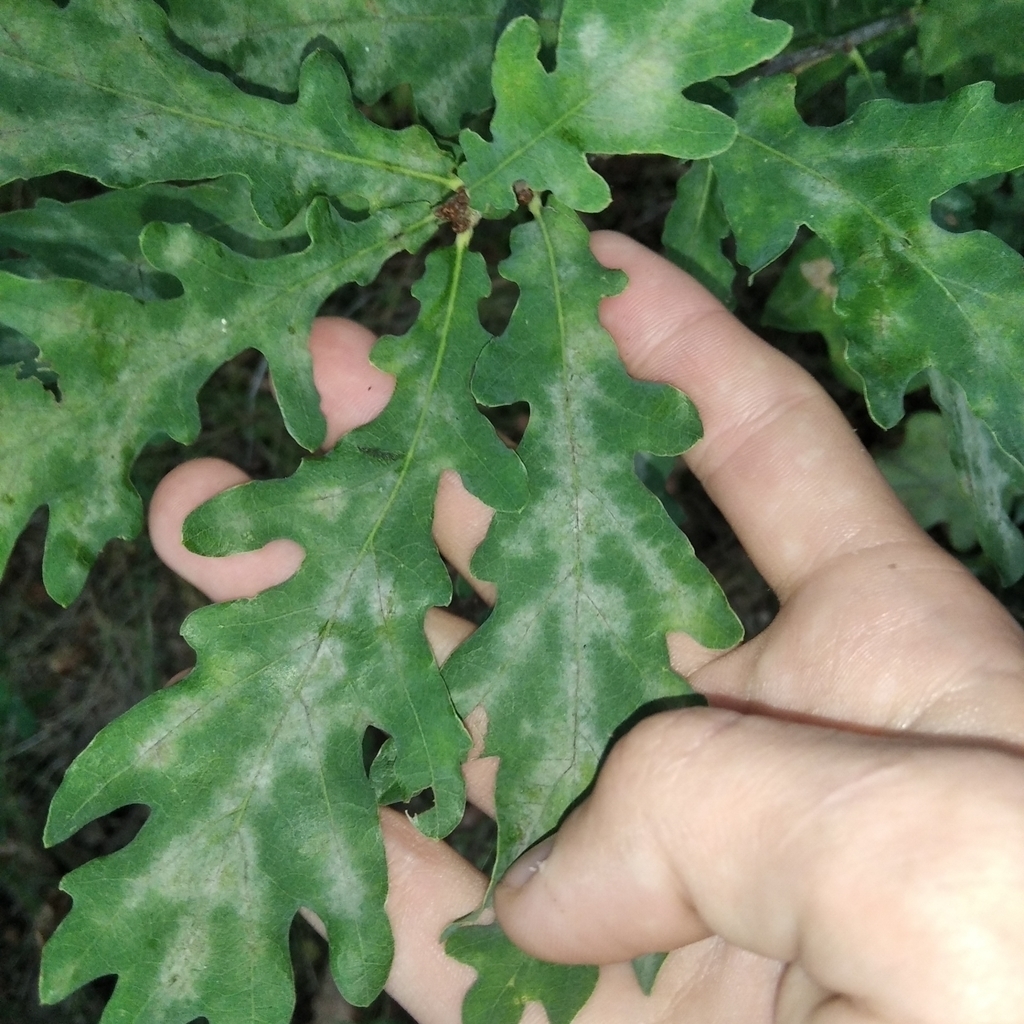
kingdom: Fungi
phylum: Ascomycota
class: Leotiomycetes
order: Helotiales
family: Erysiphaceae
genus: Erysiphe
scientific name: Erysiphe alphitoides
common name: Oak mildew
